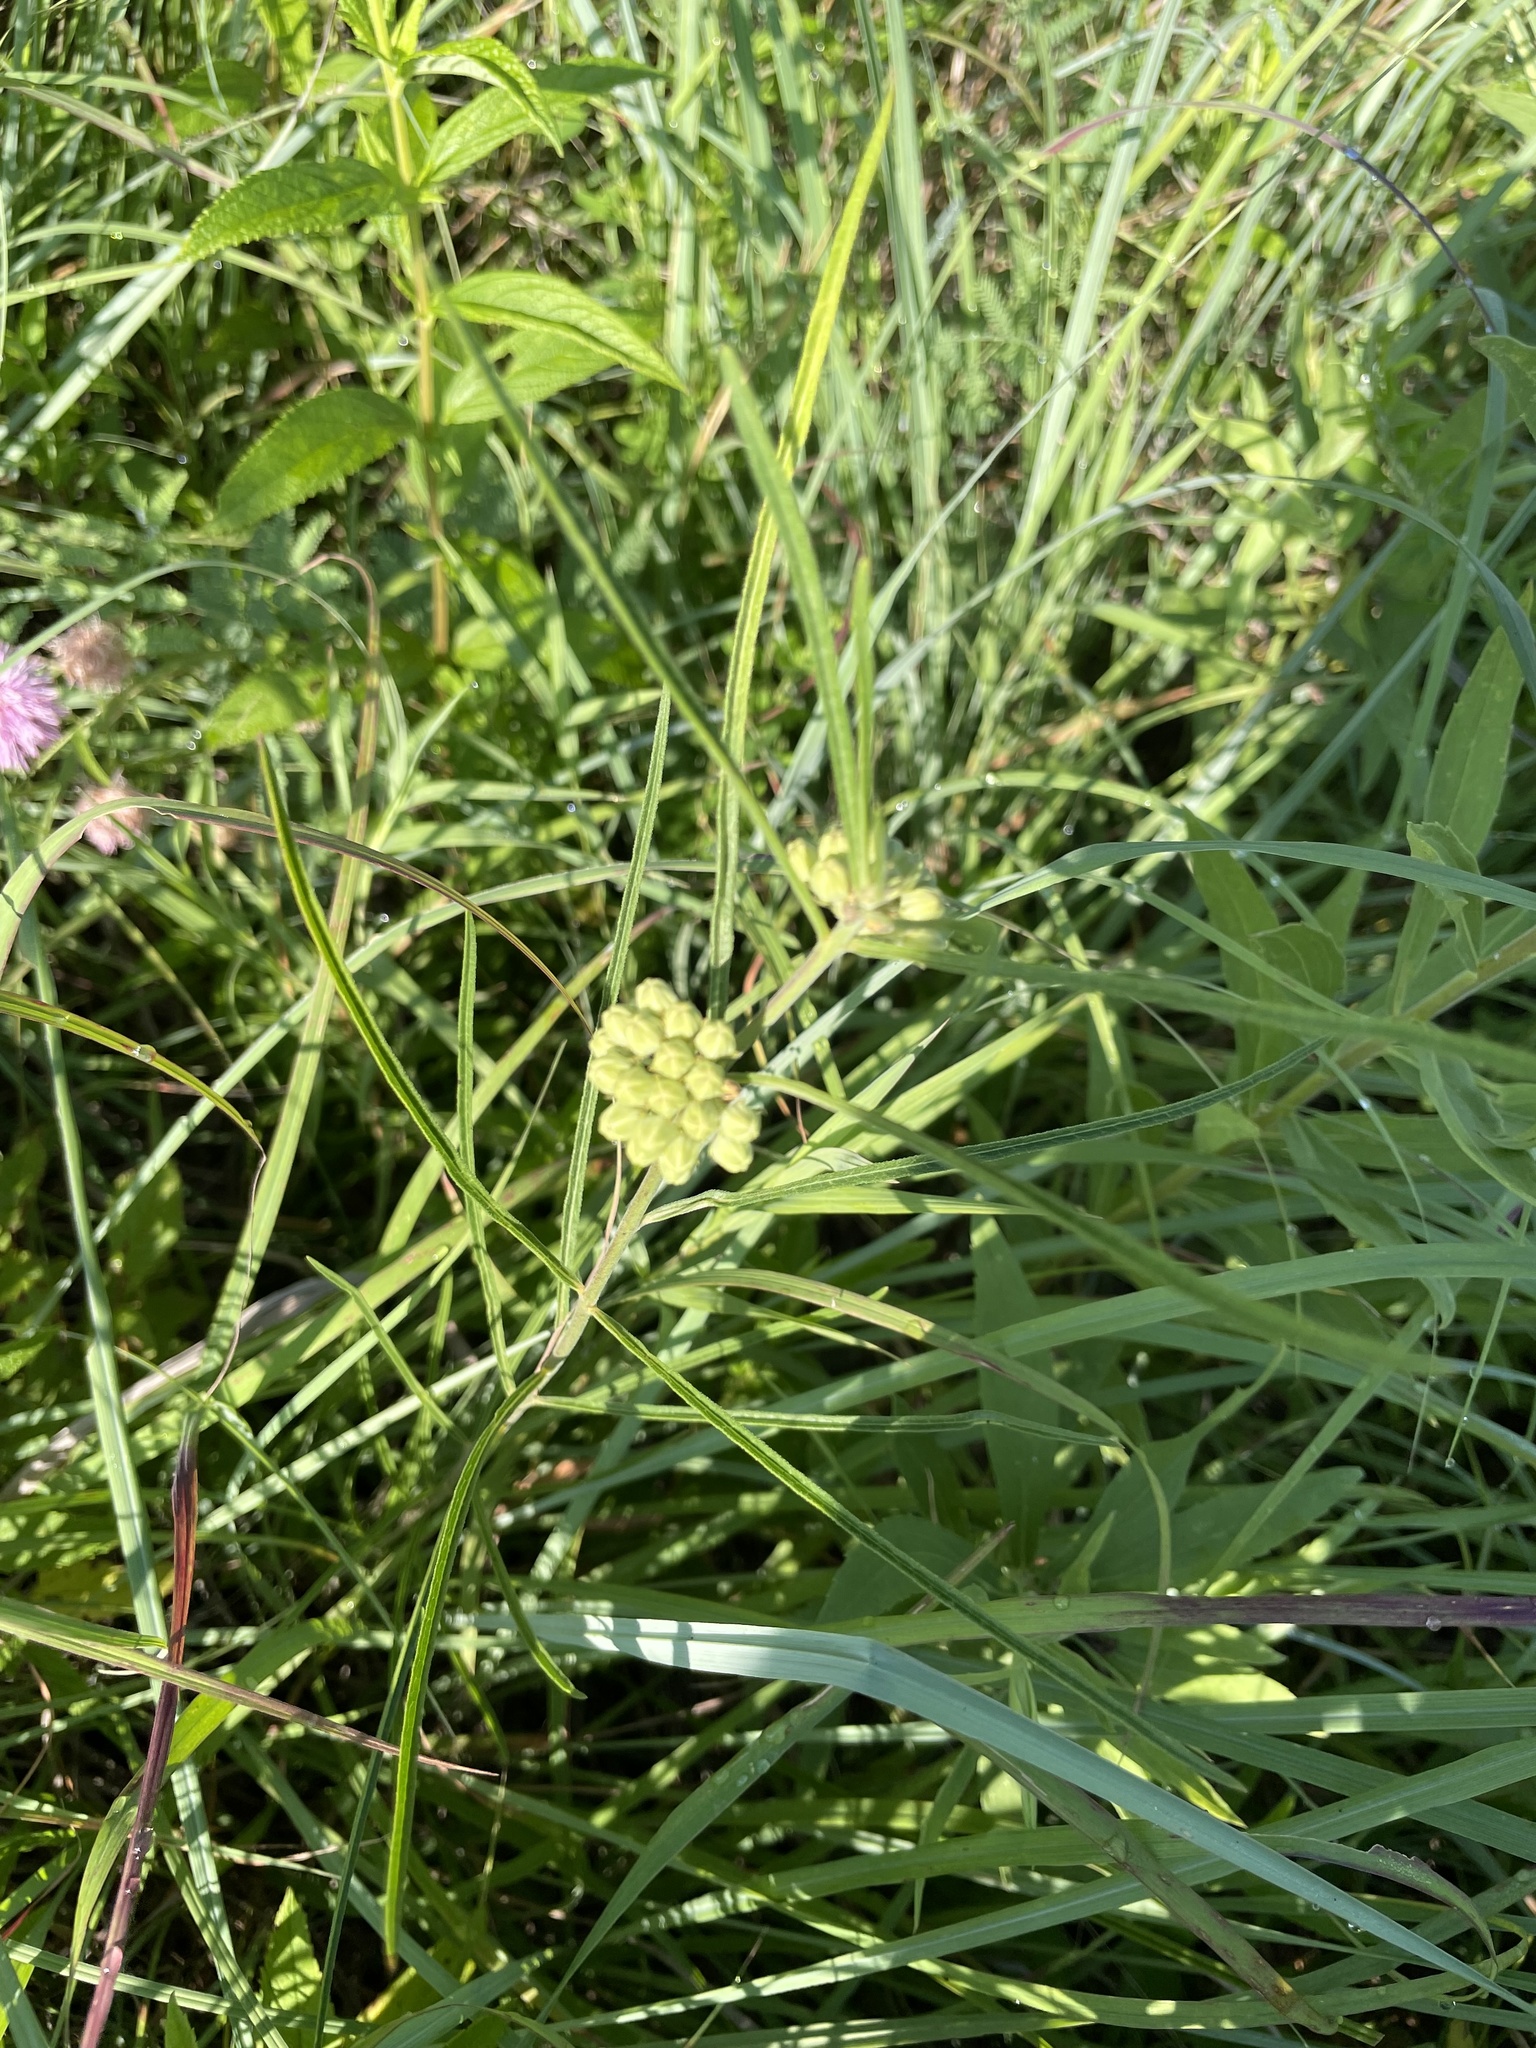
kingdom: Plantae
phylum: Tracheophyta
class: Magnoliopsida
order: Gentianales
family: Apocynaceae
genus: Asclepias
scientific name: Asclepias stenophylla
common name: Narrow-leaf milkweed
